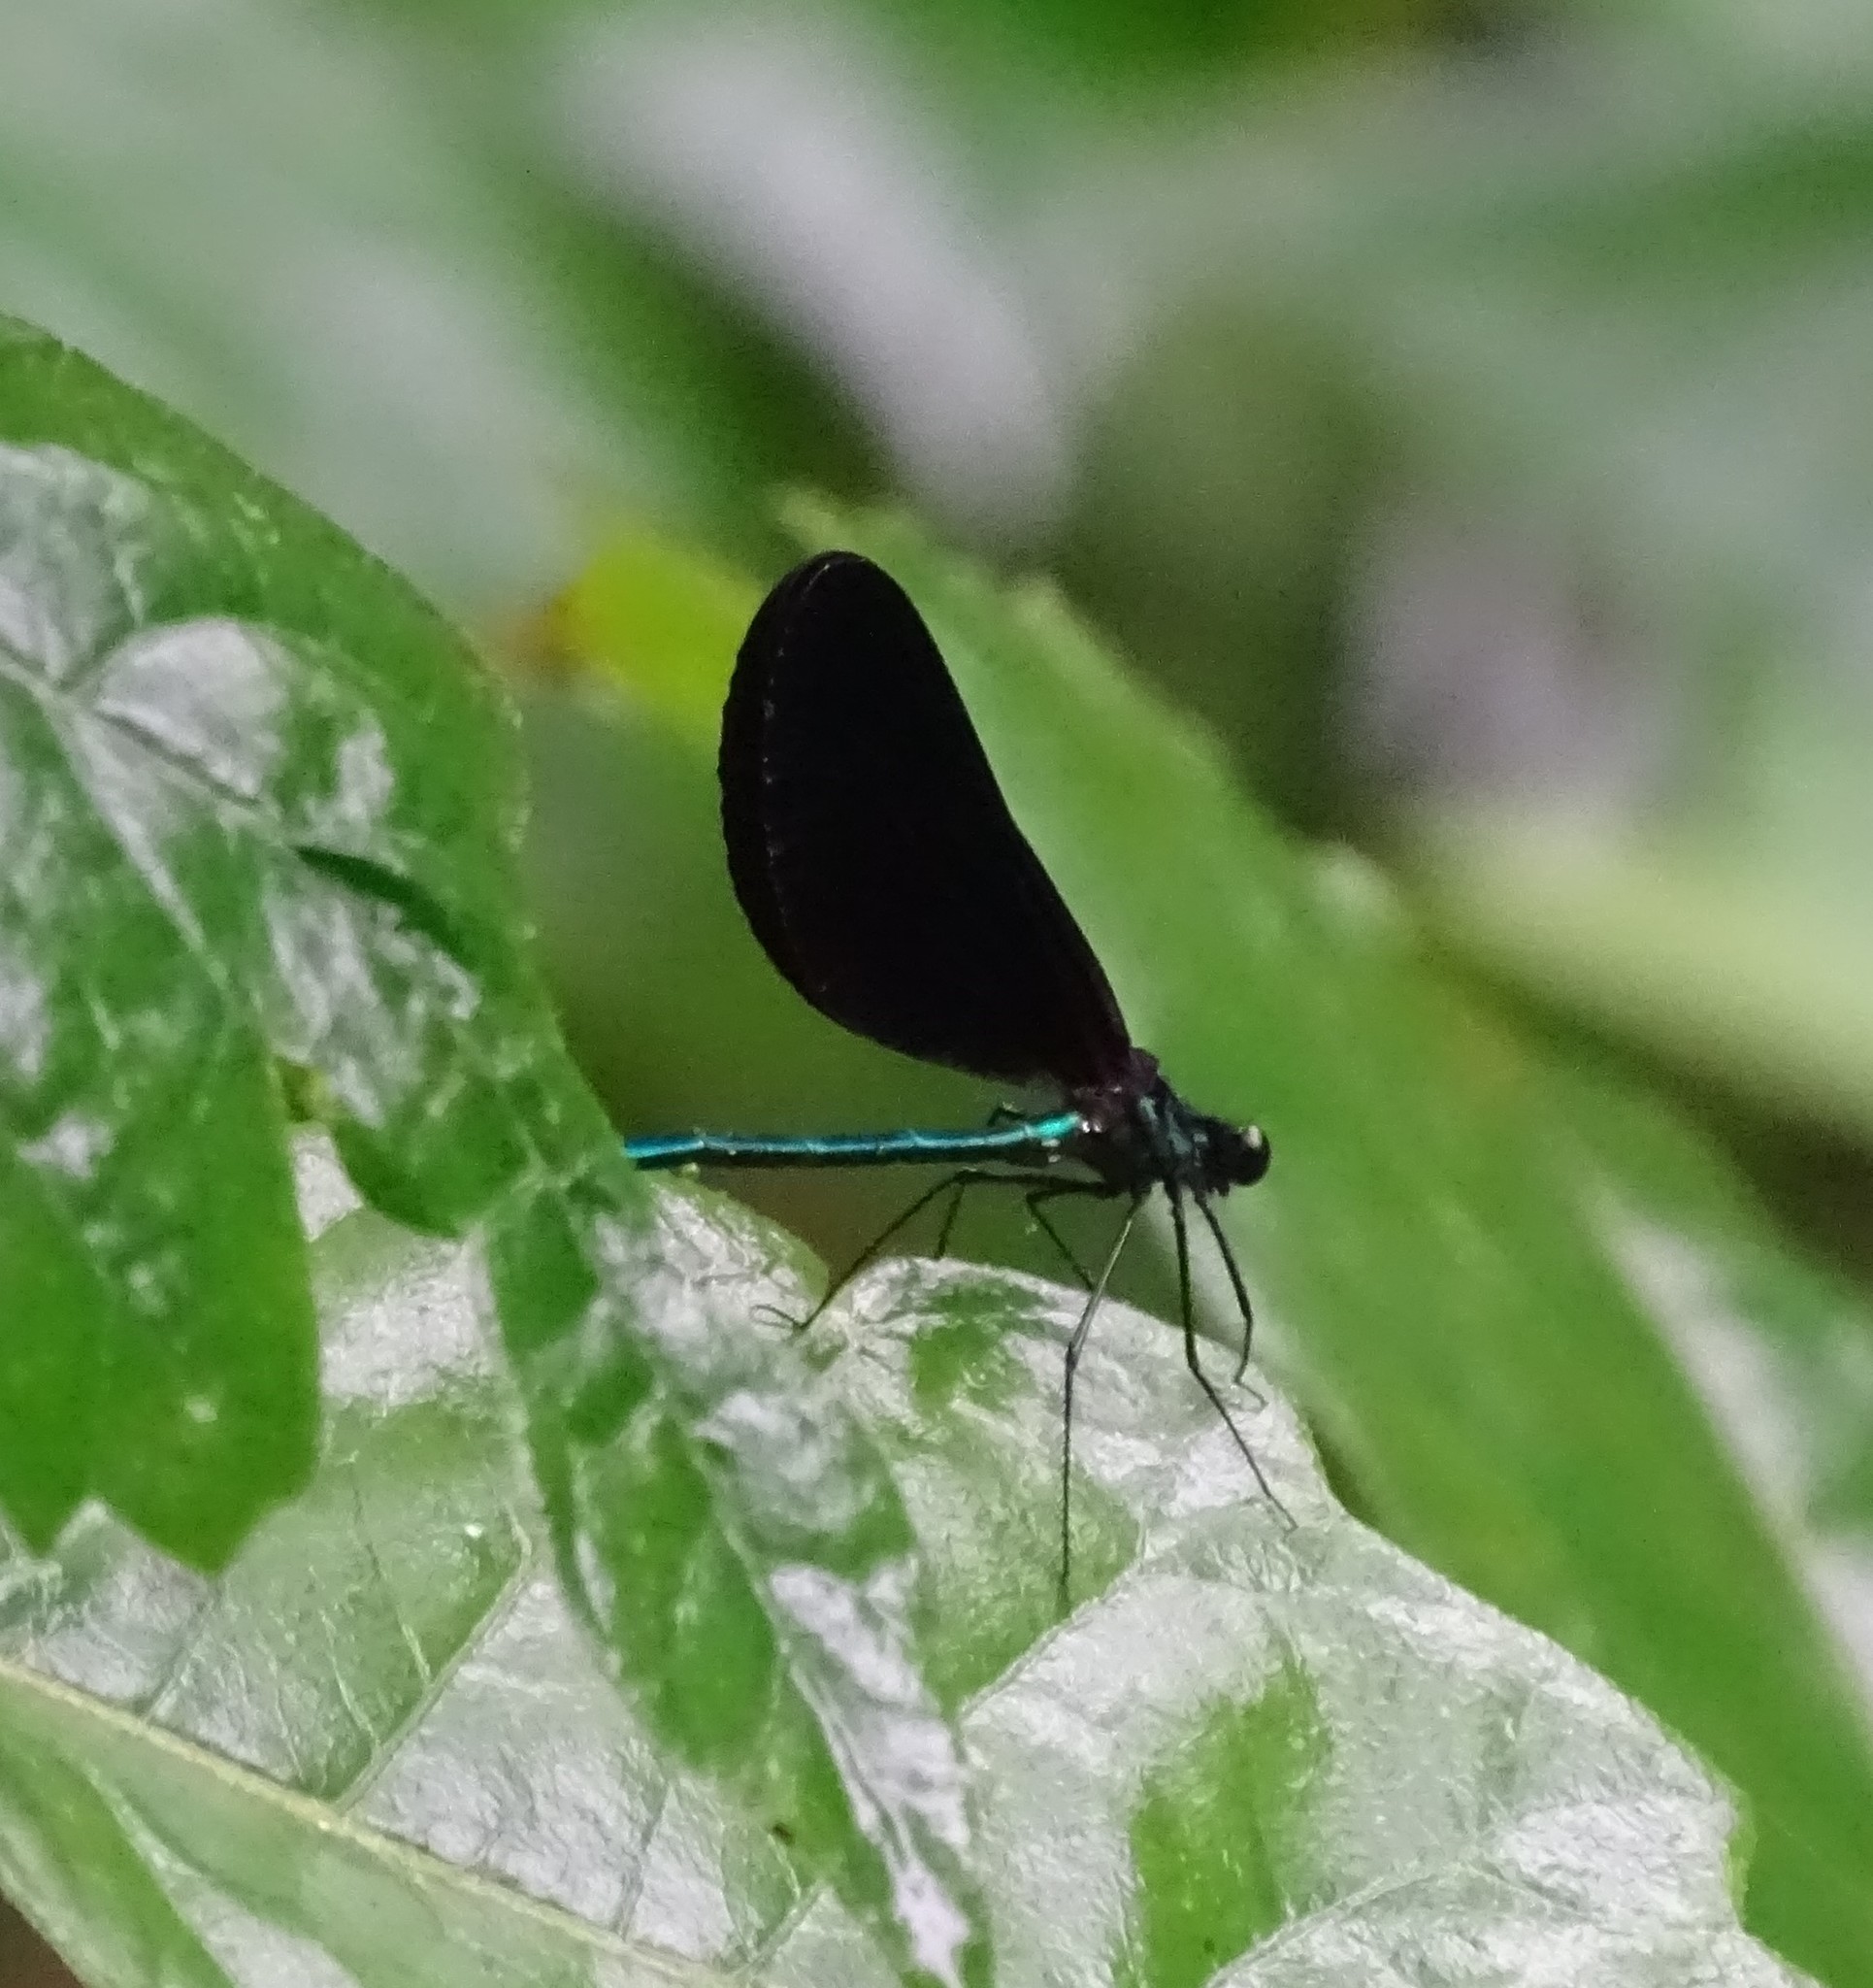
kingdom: Animalia
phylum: Arthropoda
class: Insecta
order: Odonata
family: Calopterygidae
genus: Calopteryx
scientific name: Calopteryx maculata
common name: Ebony jewelwing
